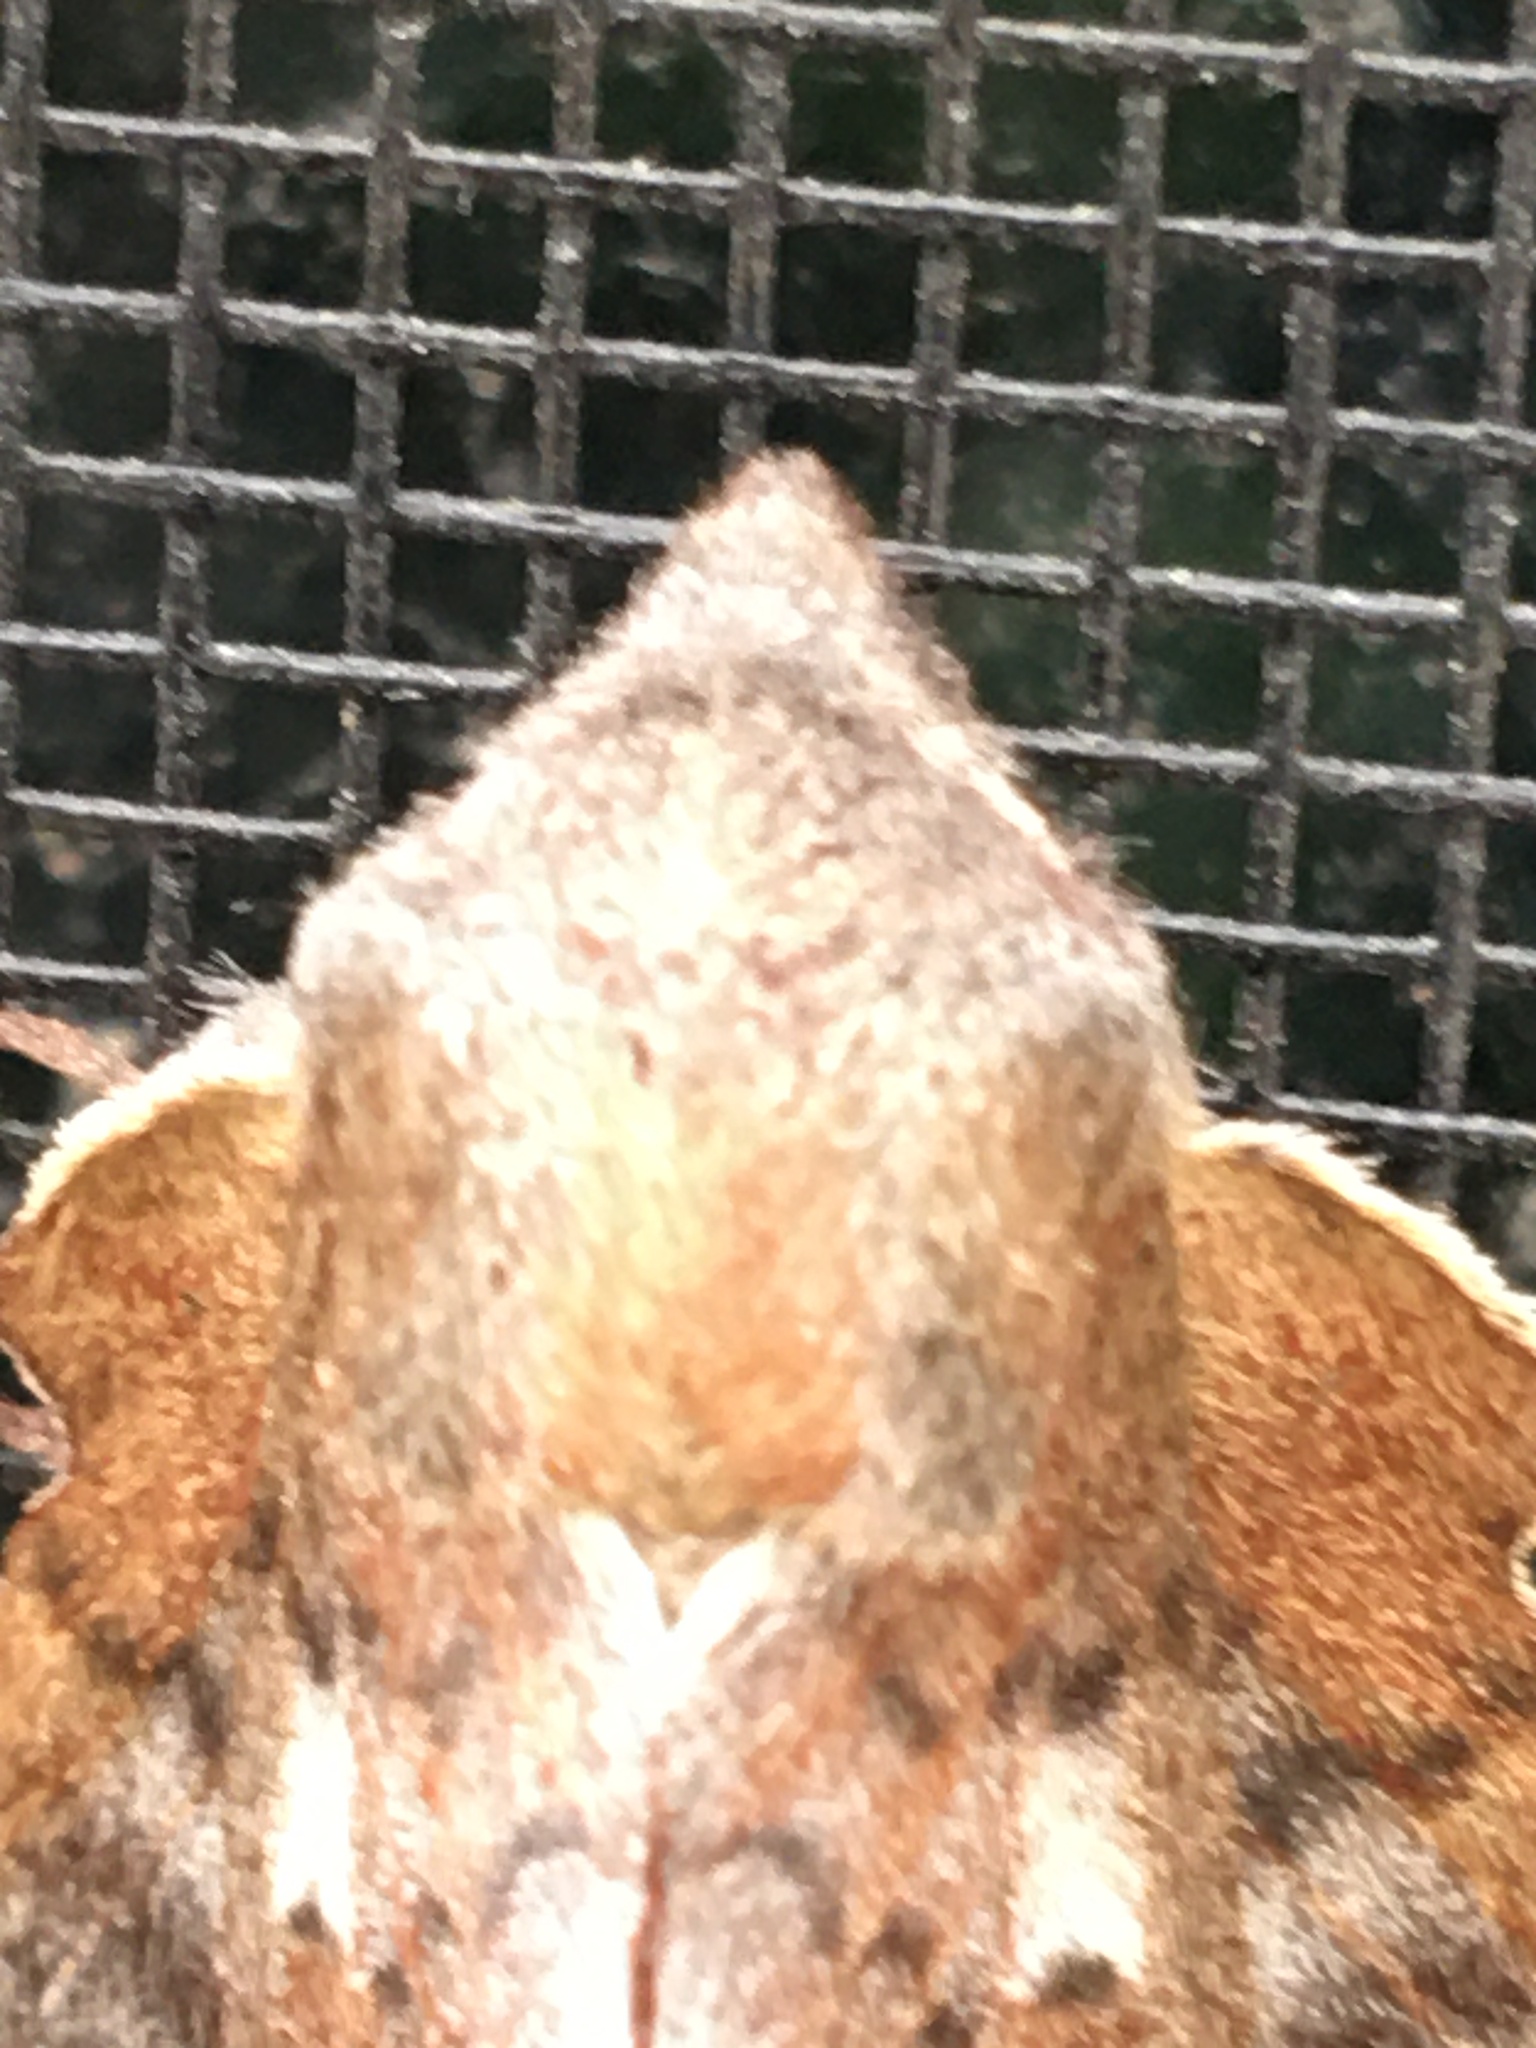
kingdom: Animalia
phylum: Arthropoda
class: Insecta
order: Lepidoptera
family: Lasiocampidae
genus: Phyllodesma
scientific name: Phyllodesma americana
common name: American lappet moth
